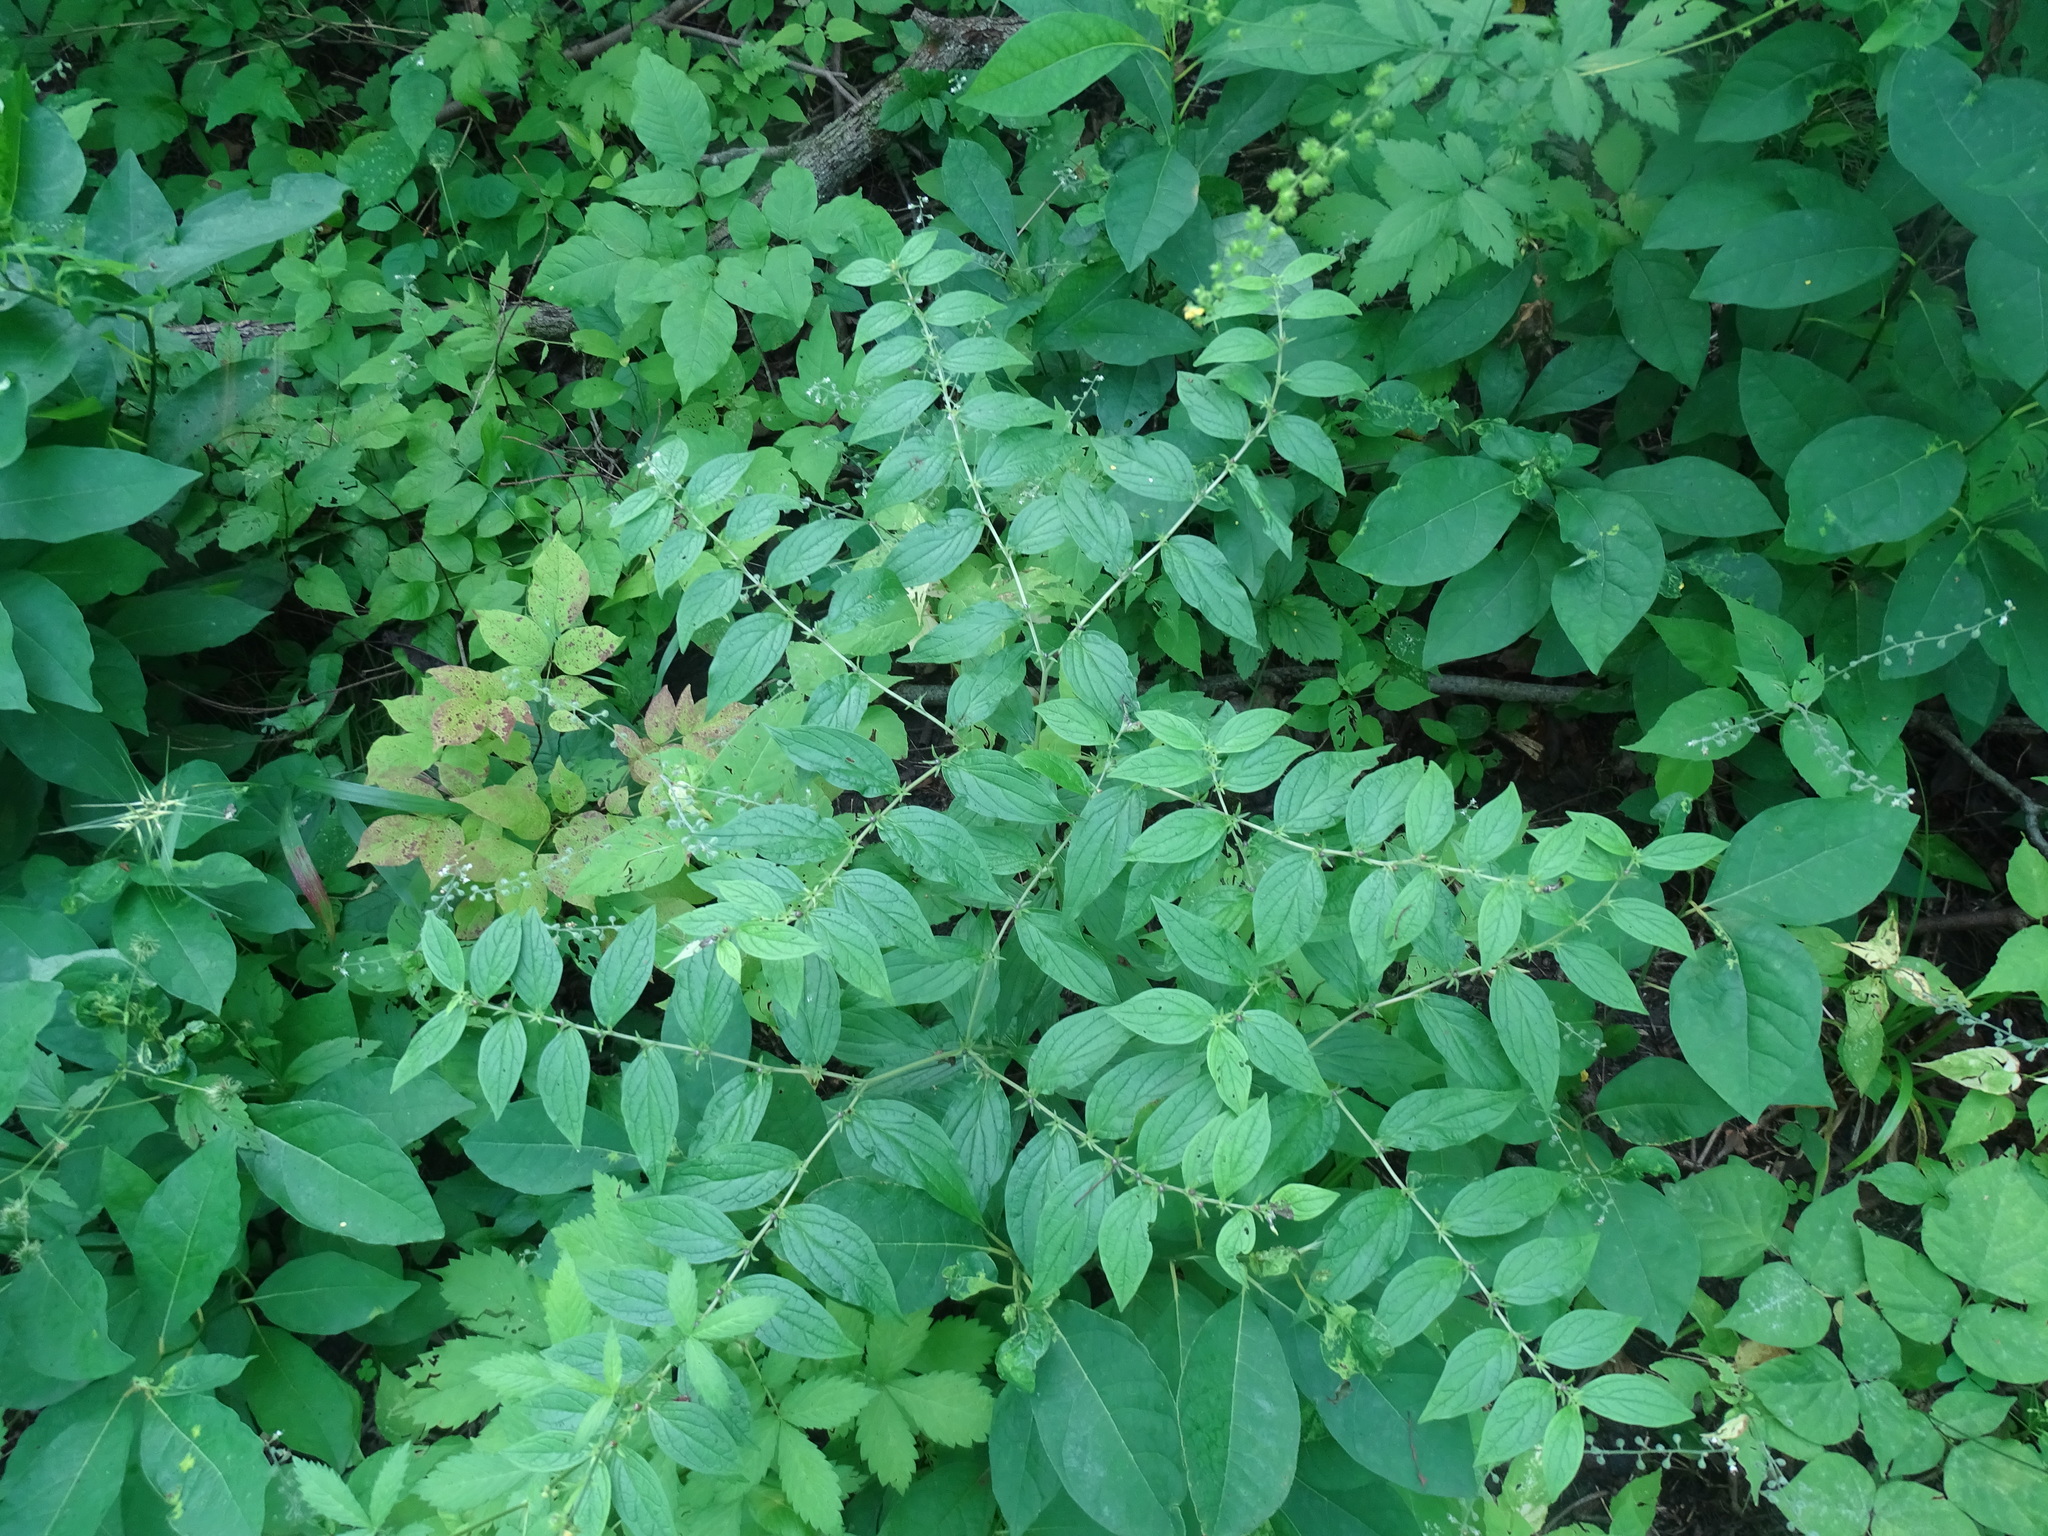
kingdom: Plantae
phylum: Tracheophyta
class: Magnoliopsida
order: Boraginales
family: Boraginaceae
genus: Lithospermum
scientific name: Lithospermum latifolium
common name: American gromwell
